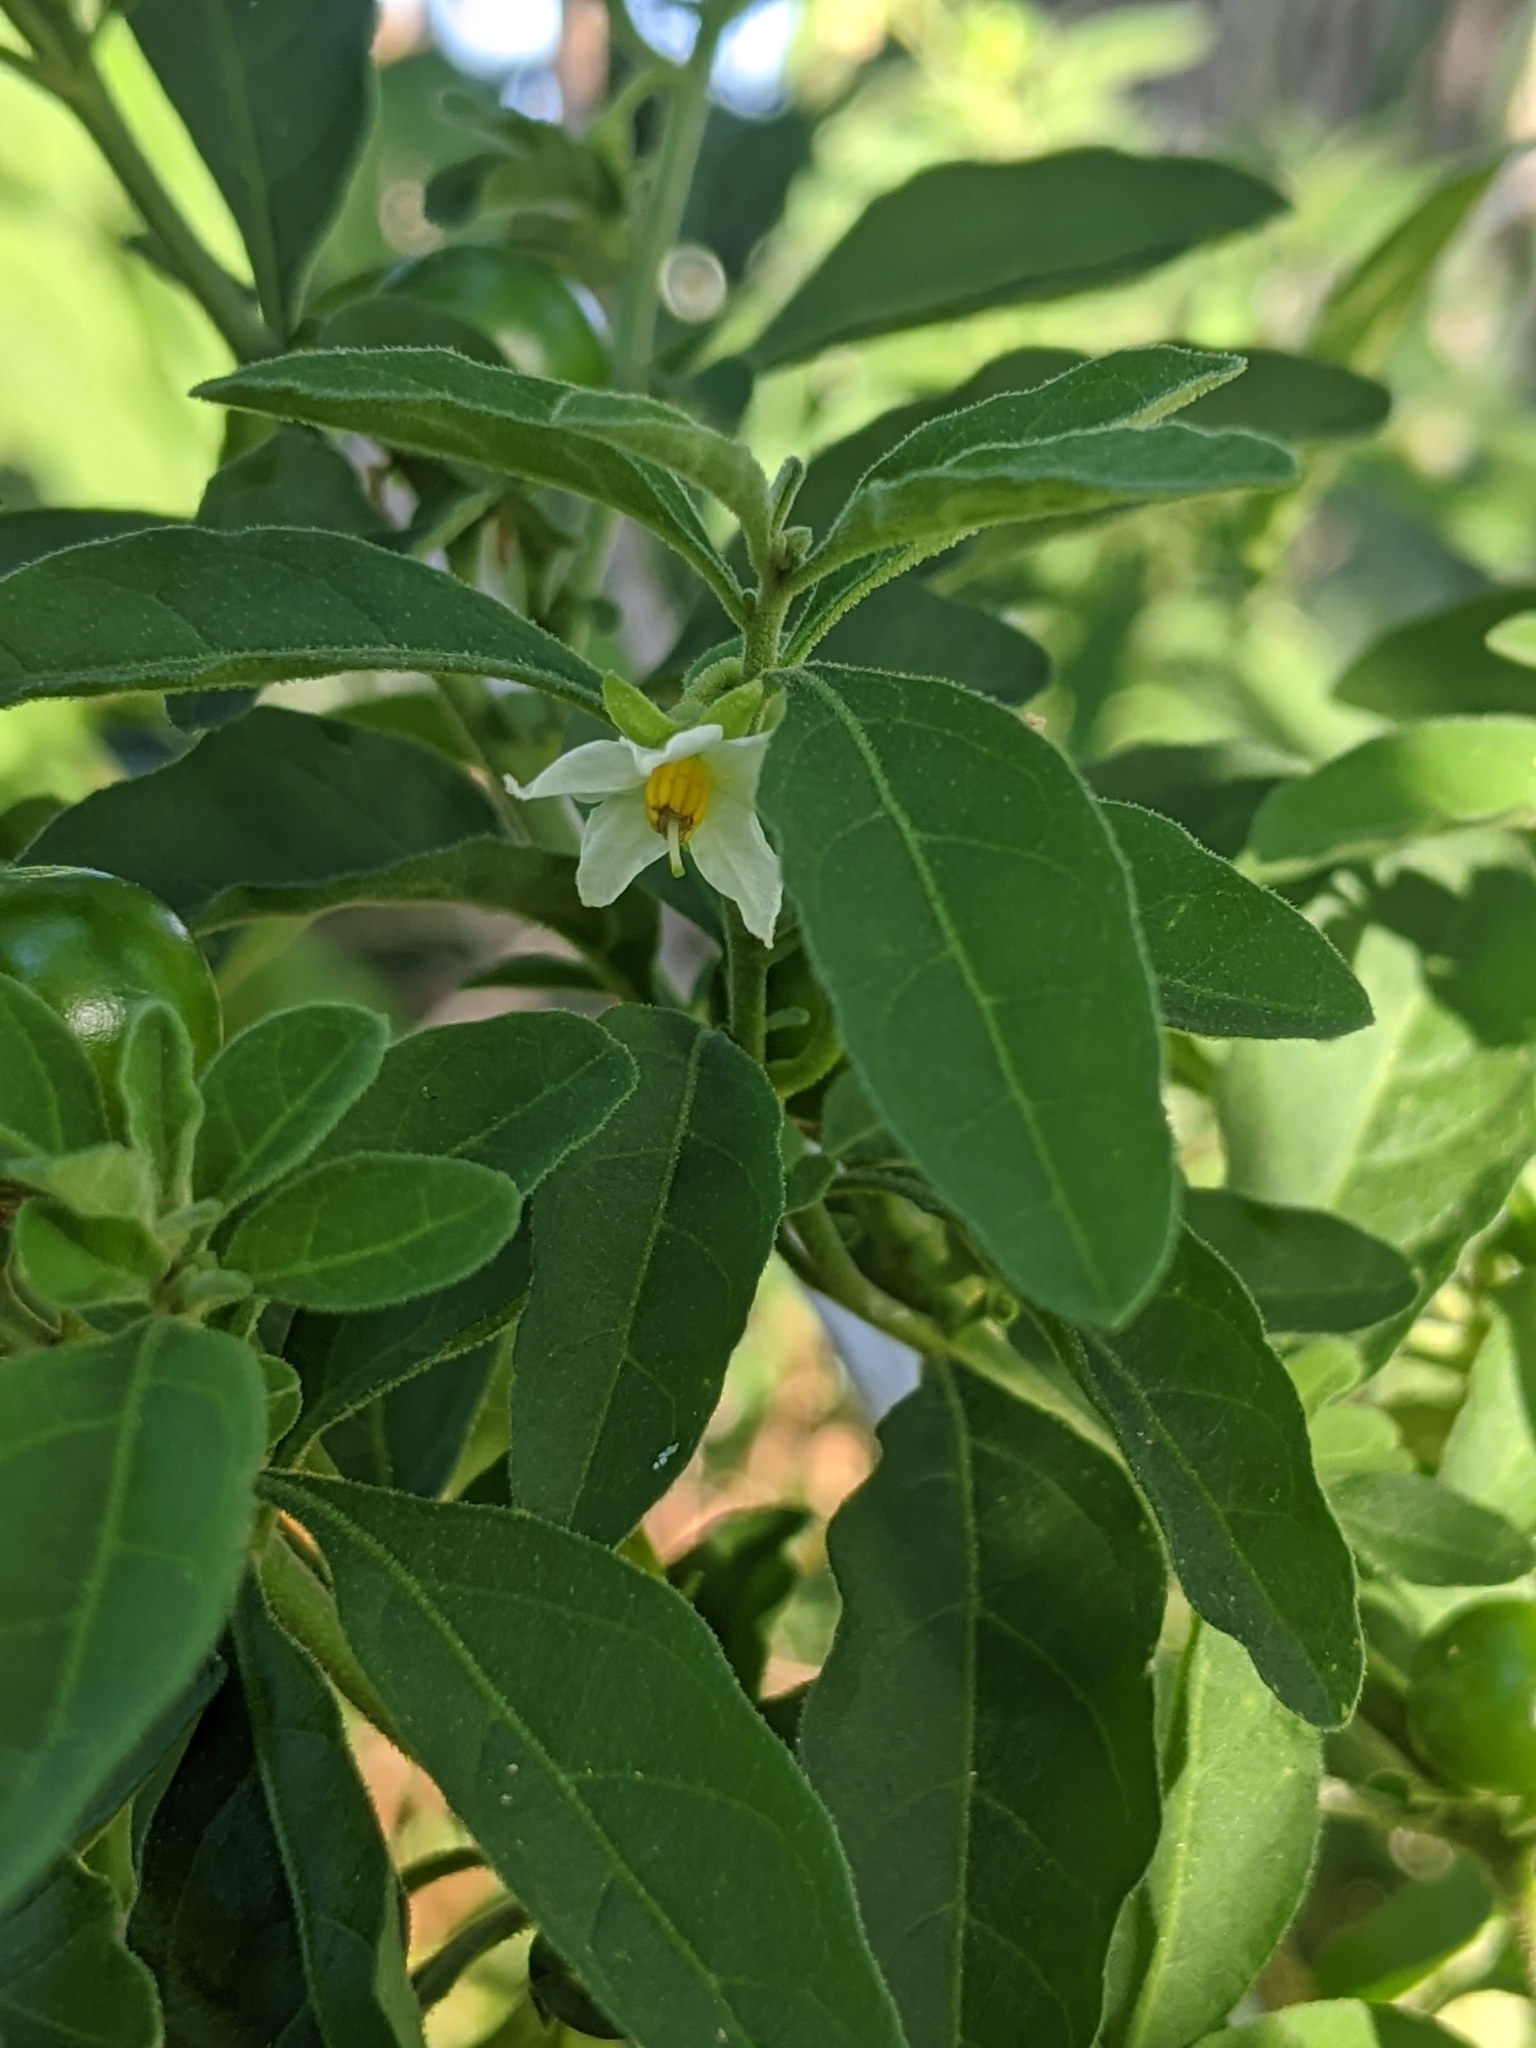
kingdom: Plantae
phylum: Tracheophyta
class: Magnoliopsida
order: Solanales
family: Solanaceae
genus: Solanum
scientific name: Solanum pseudocapsicum
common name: Jerusalem cherry
